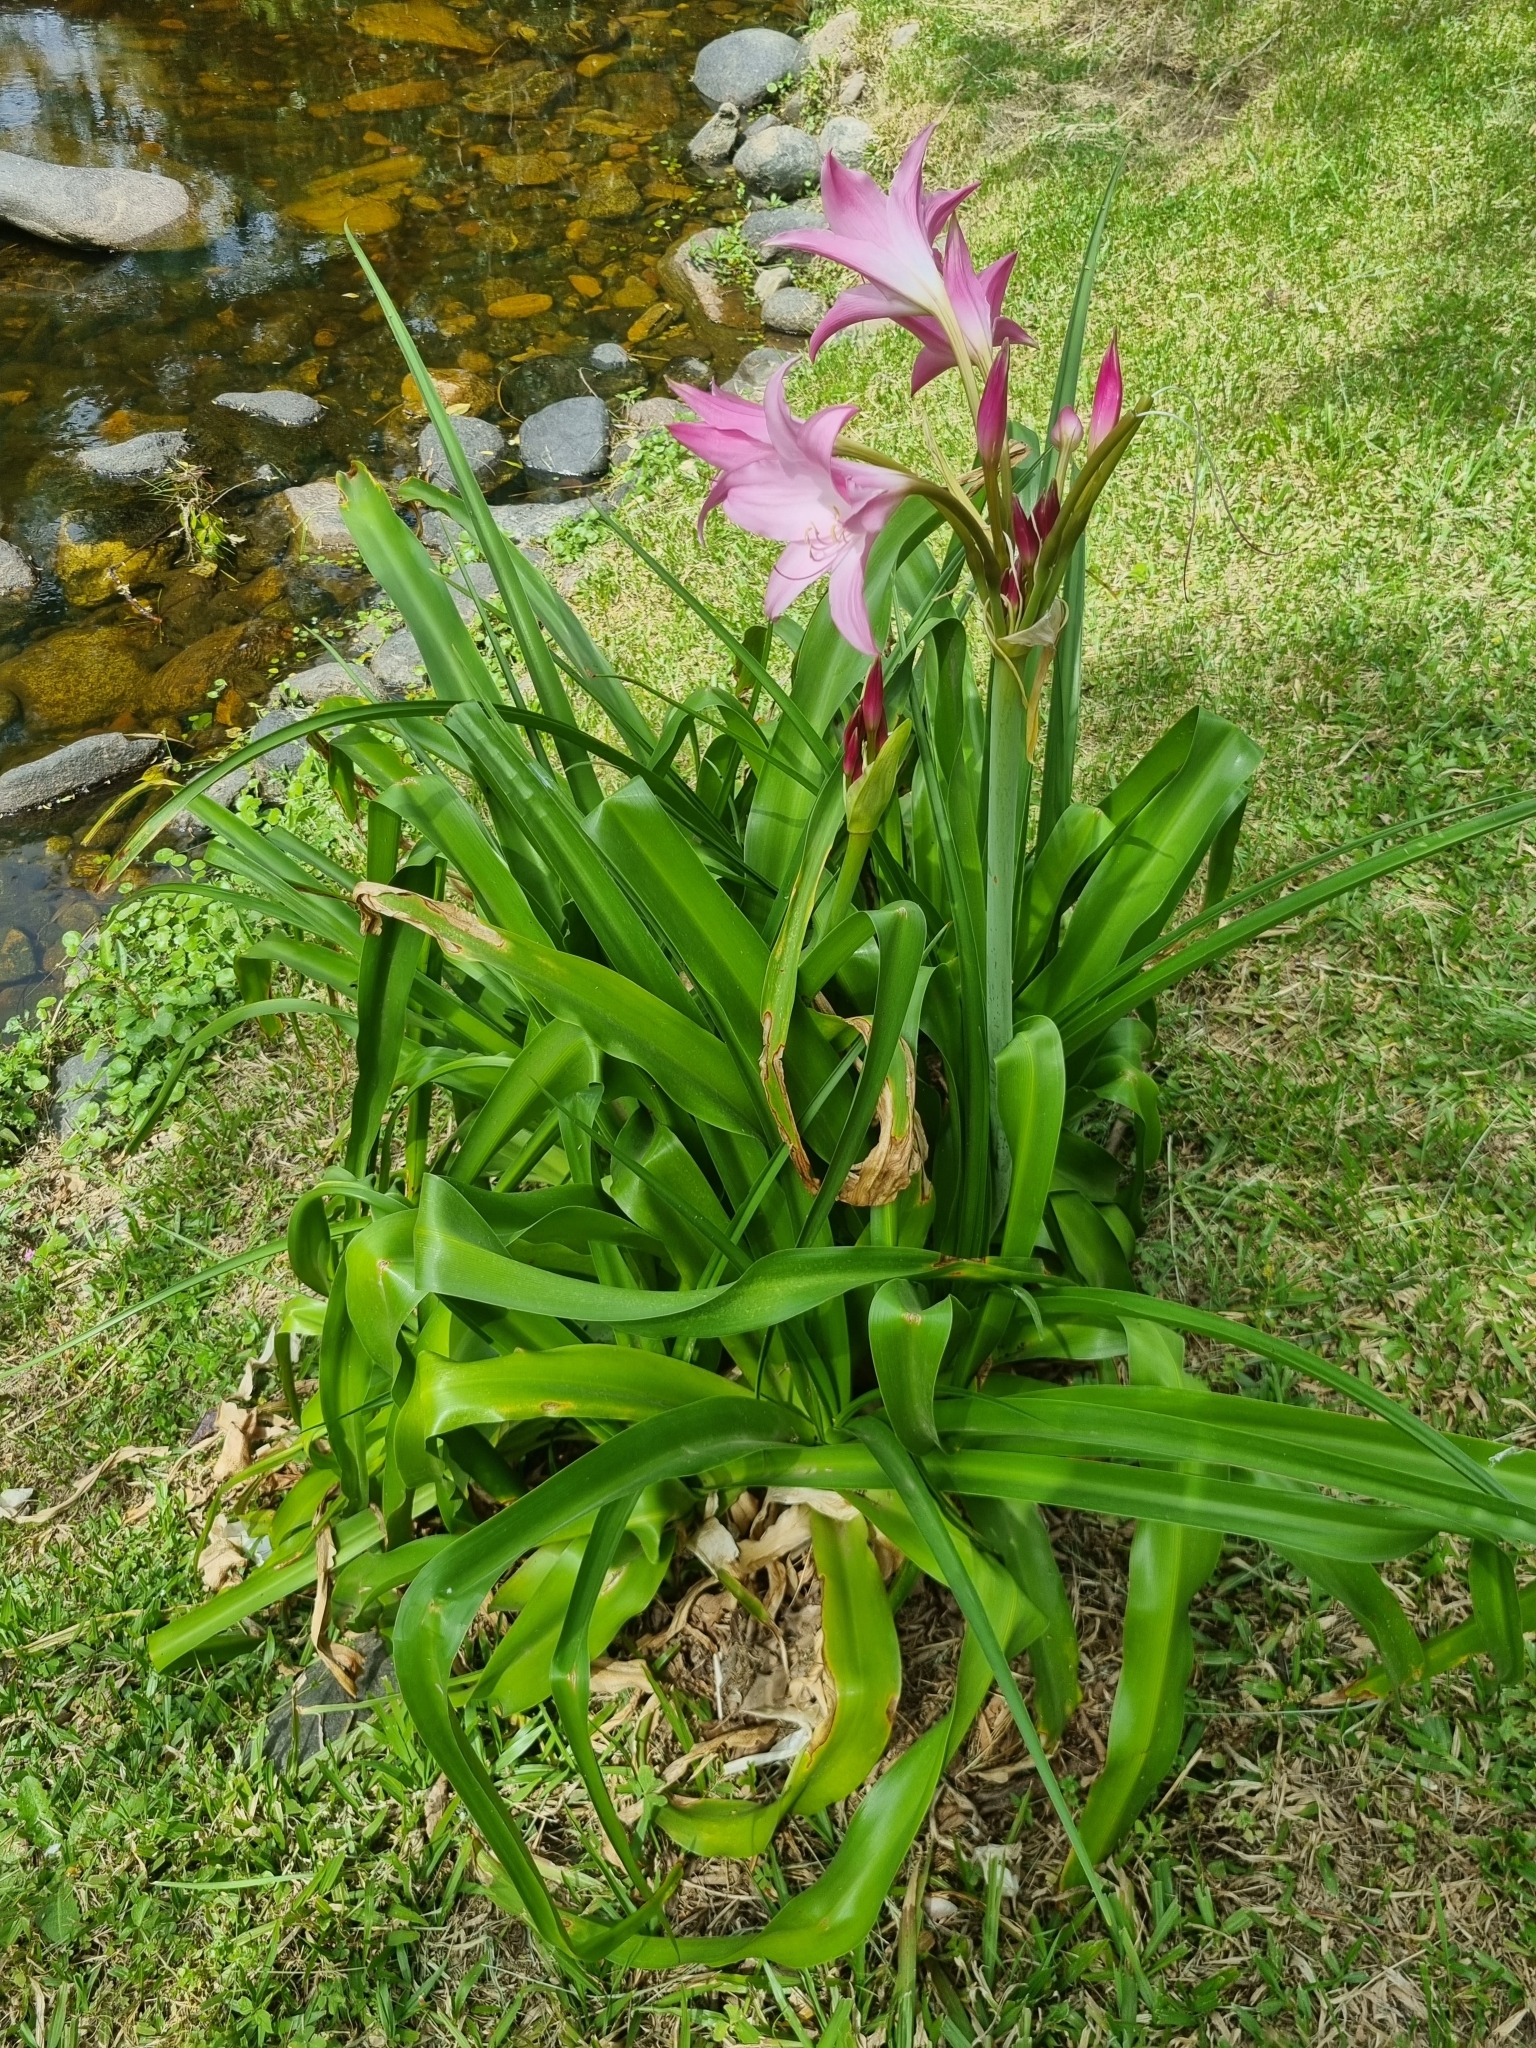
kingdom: Animalia
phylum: Arthropoda
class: Insecta
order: Hemiptera
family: Miridae
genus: Tenthecoris
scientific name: Tenthecoris bicolor
